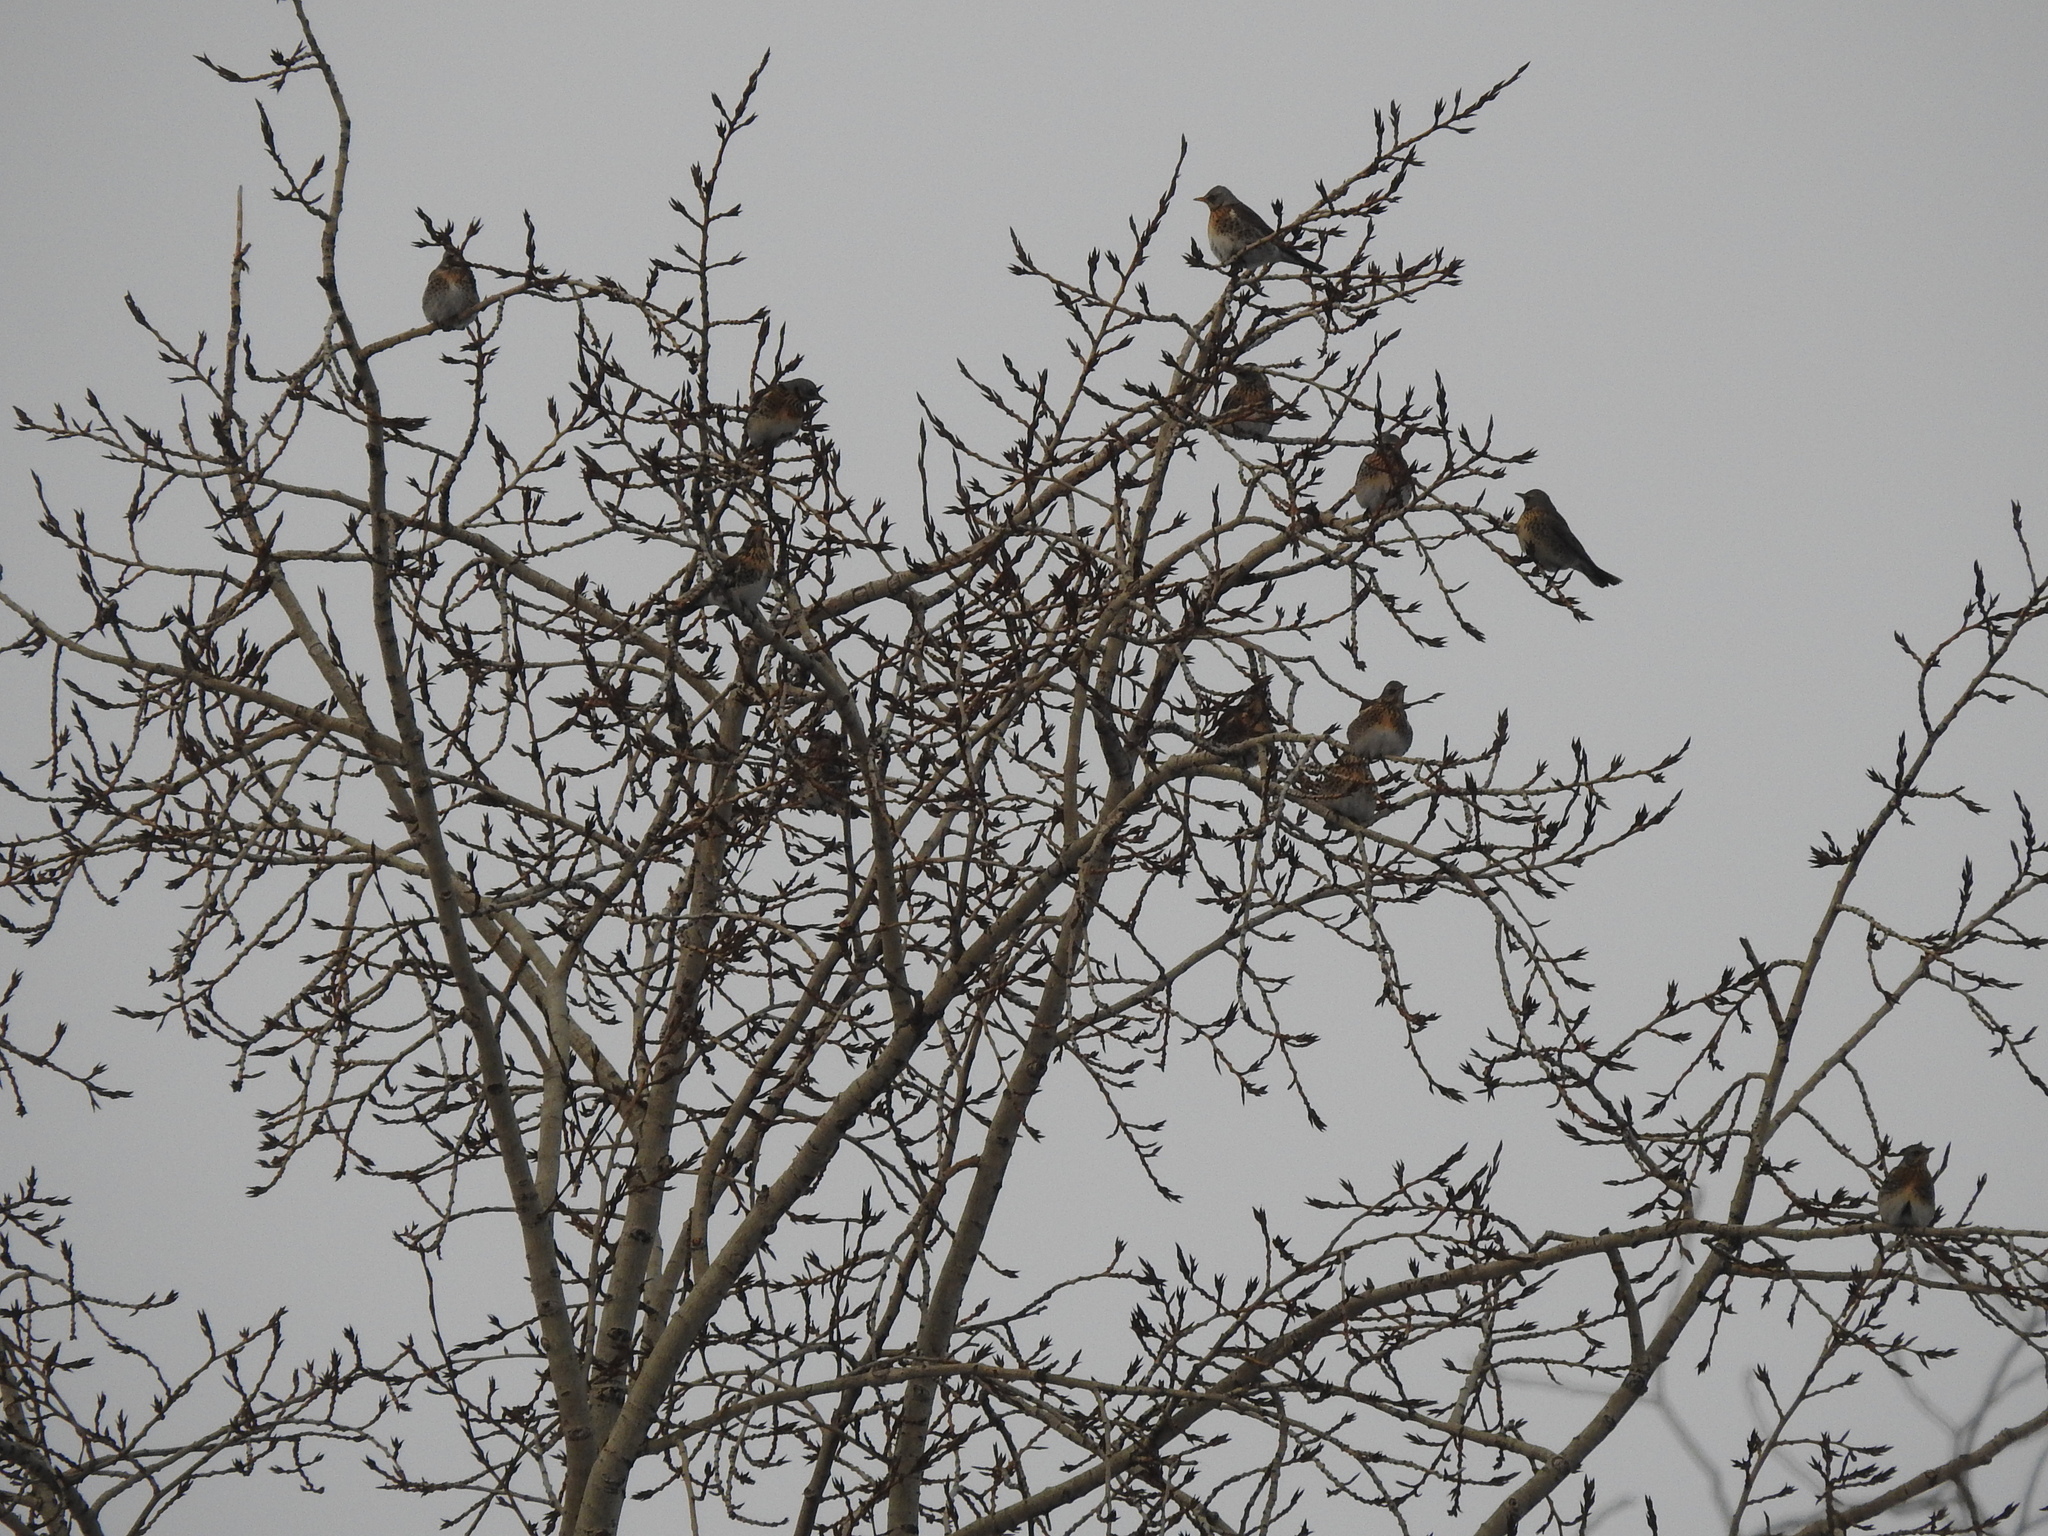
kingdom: Animalia
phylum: Chordata
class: Aves
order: Passeriformes
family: Turdidae
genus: Turdus
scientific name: Turdus pilaris
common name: Fieldfare
